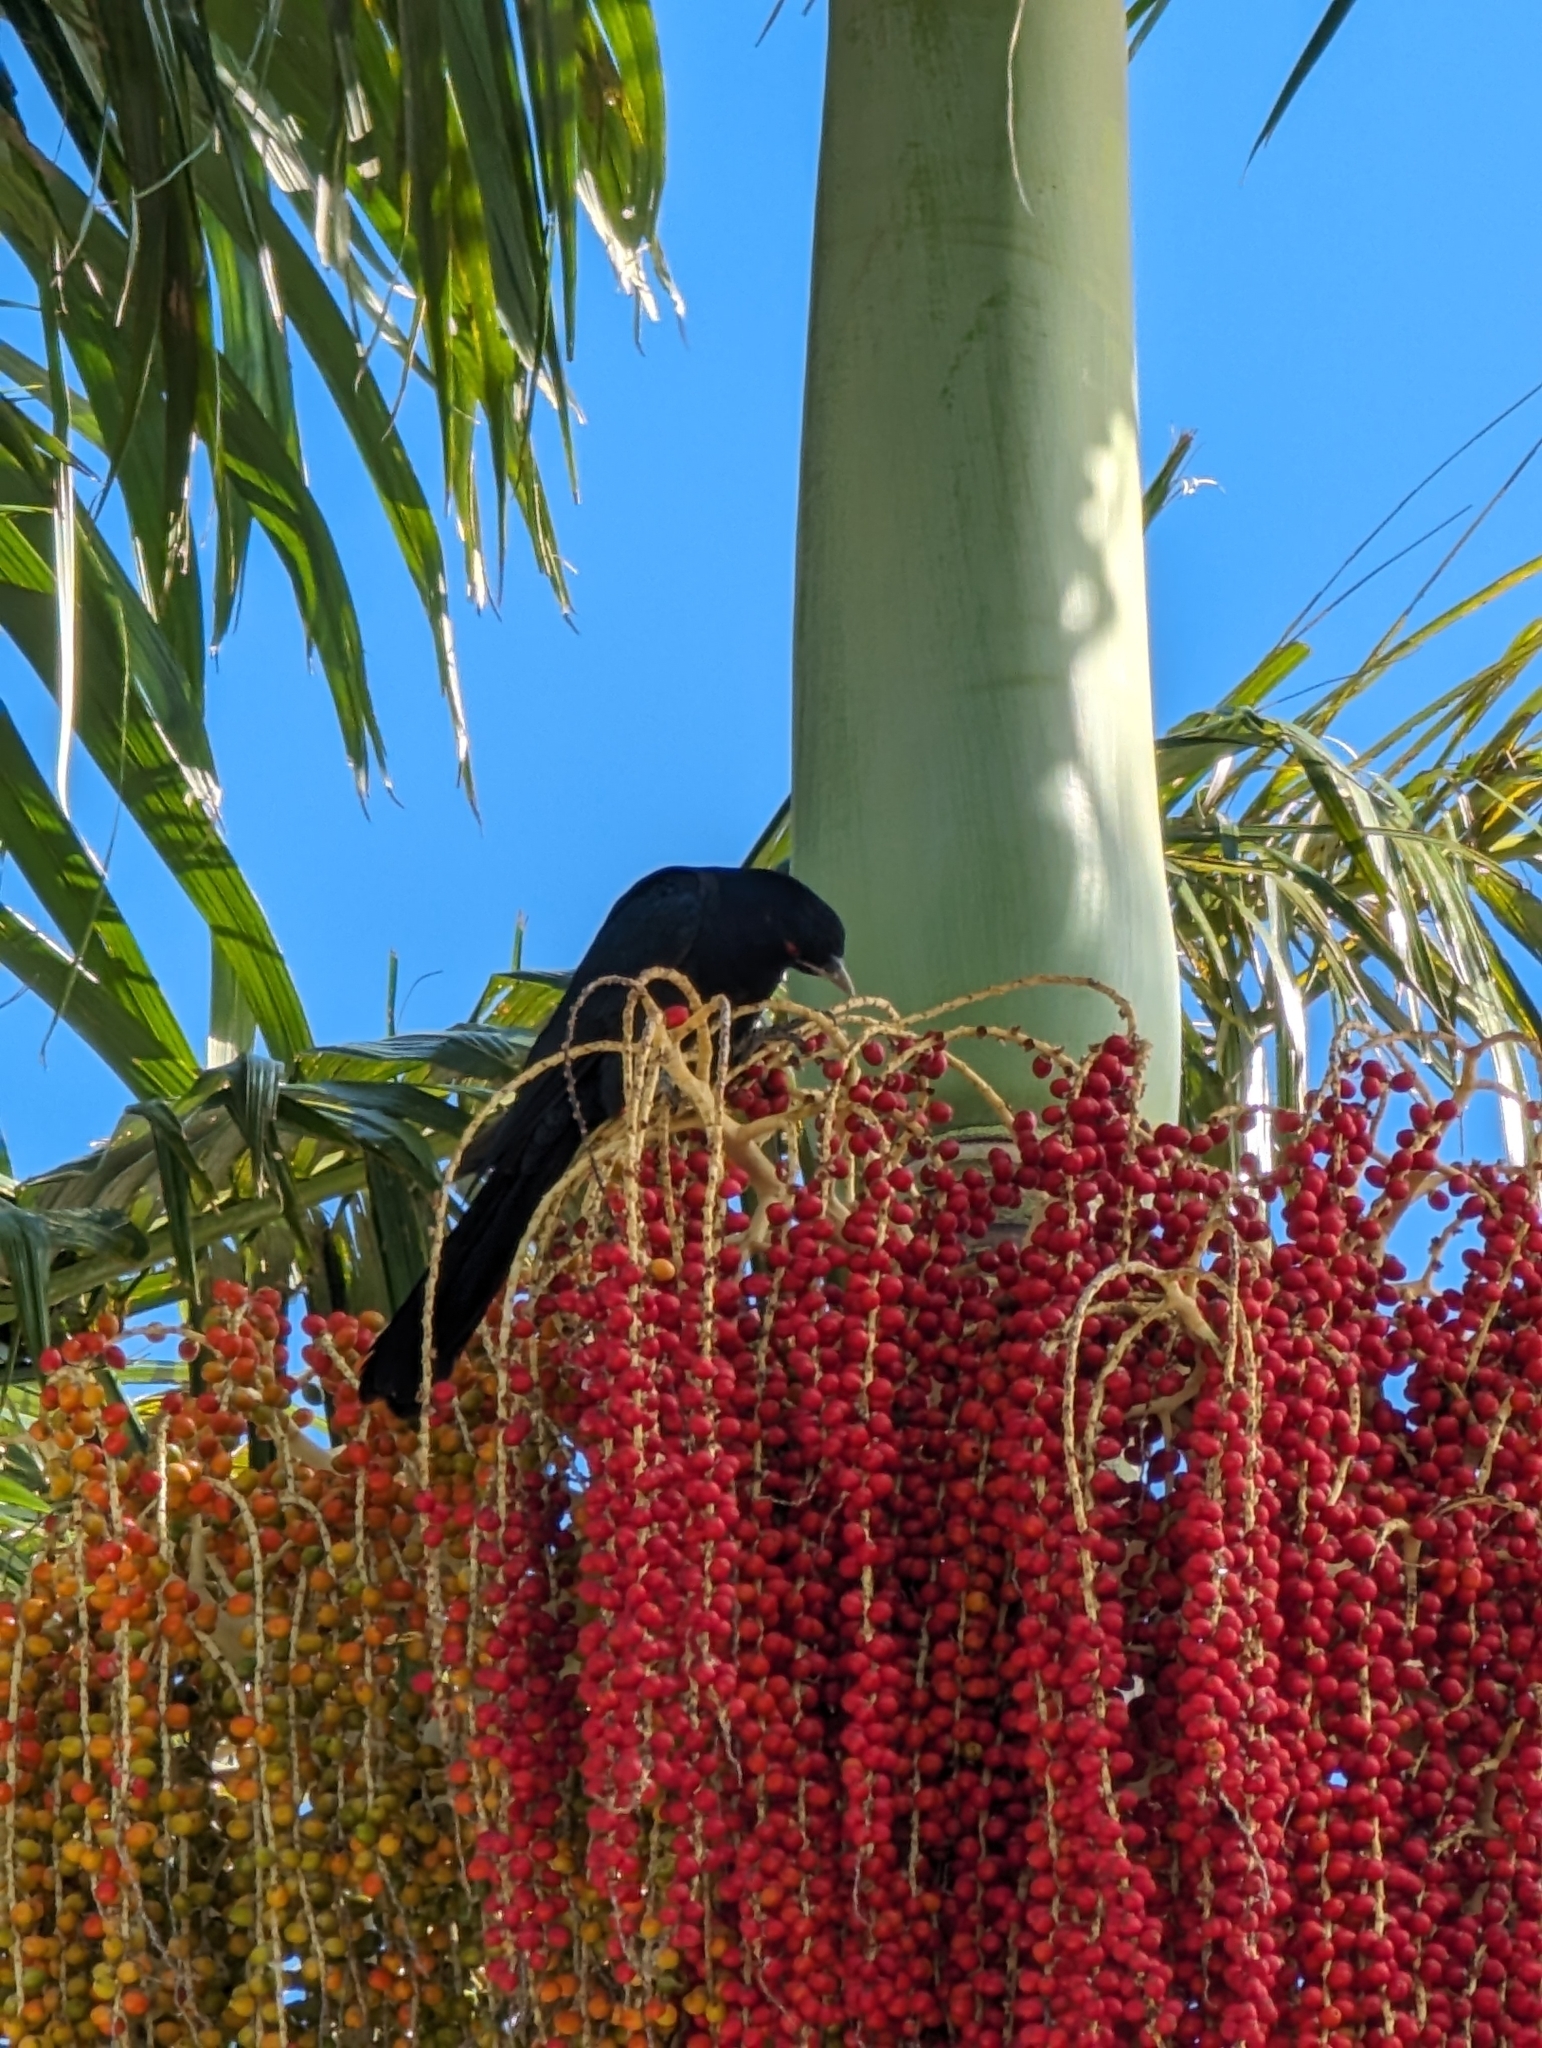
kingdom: Animalia
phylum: Chordata
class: Aves
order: Cuculiformes
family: Cuculidae
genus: Eudynamys
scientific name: Eudynamys orientalis
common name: Pacific koel
